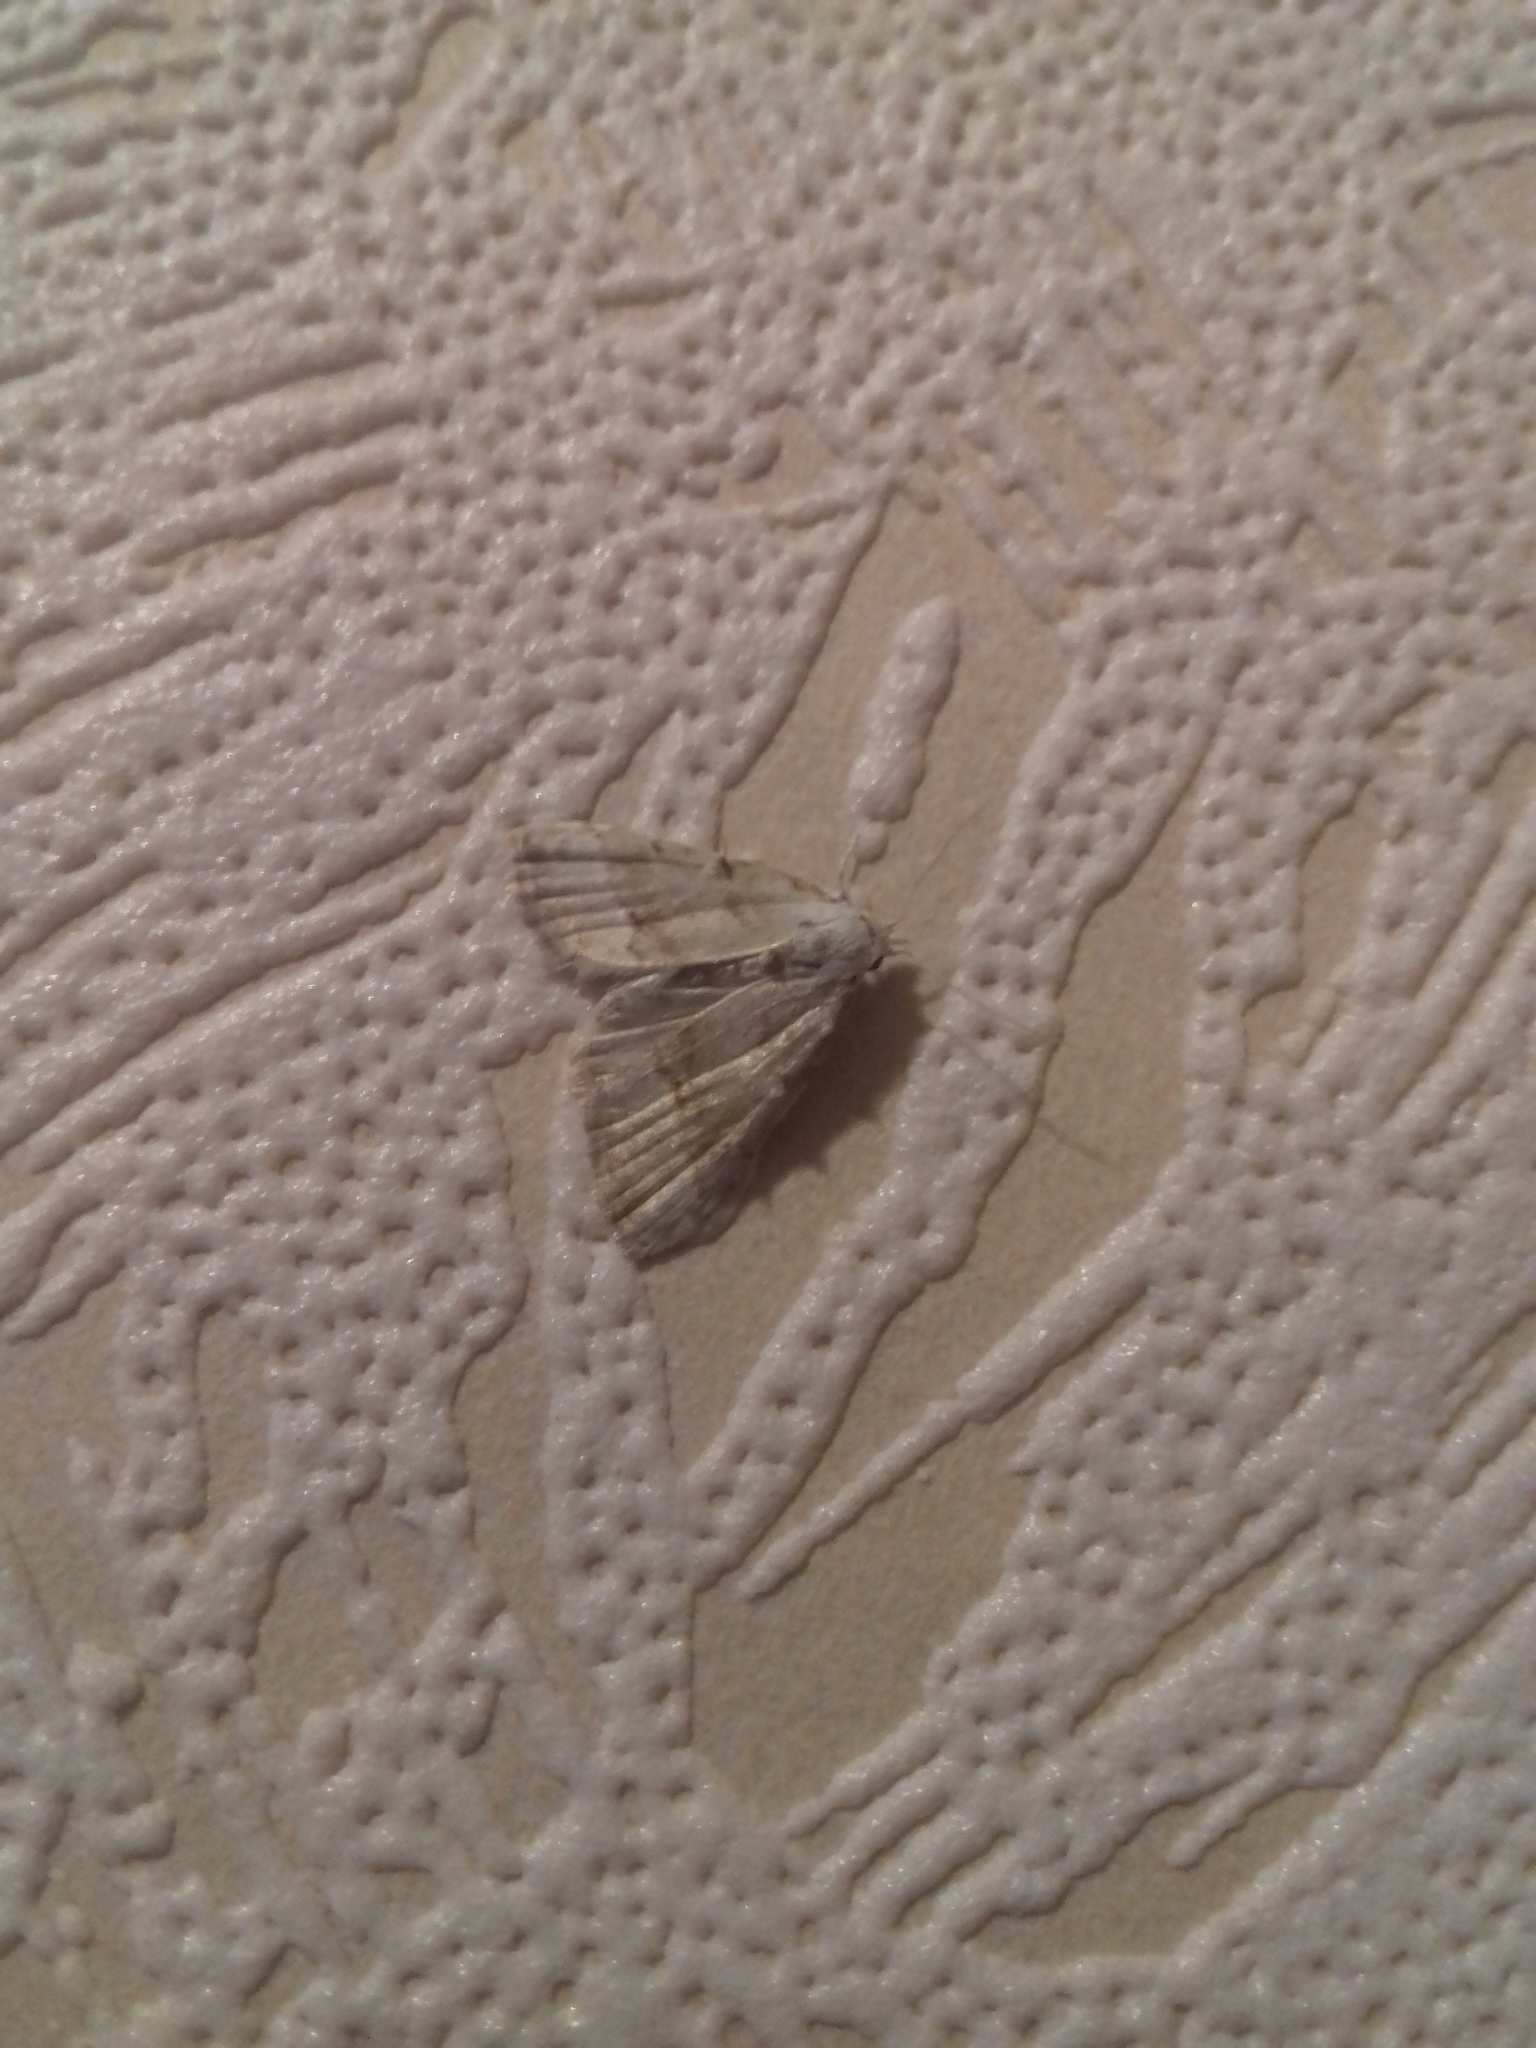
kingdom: Animalia
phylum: Arthropoda
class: Insecta
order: Lepidoptera
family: Nolidae
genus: Nola
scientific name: Nola aerugula
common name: Scarce black arches
